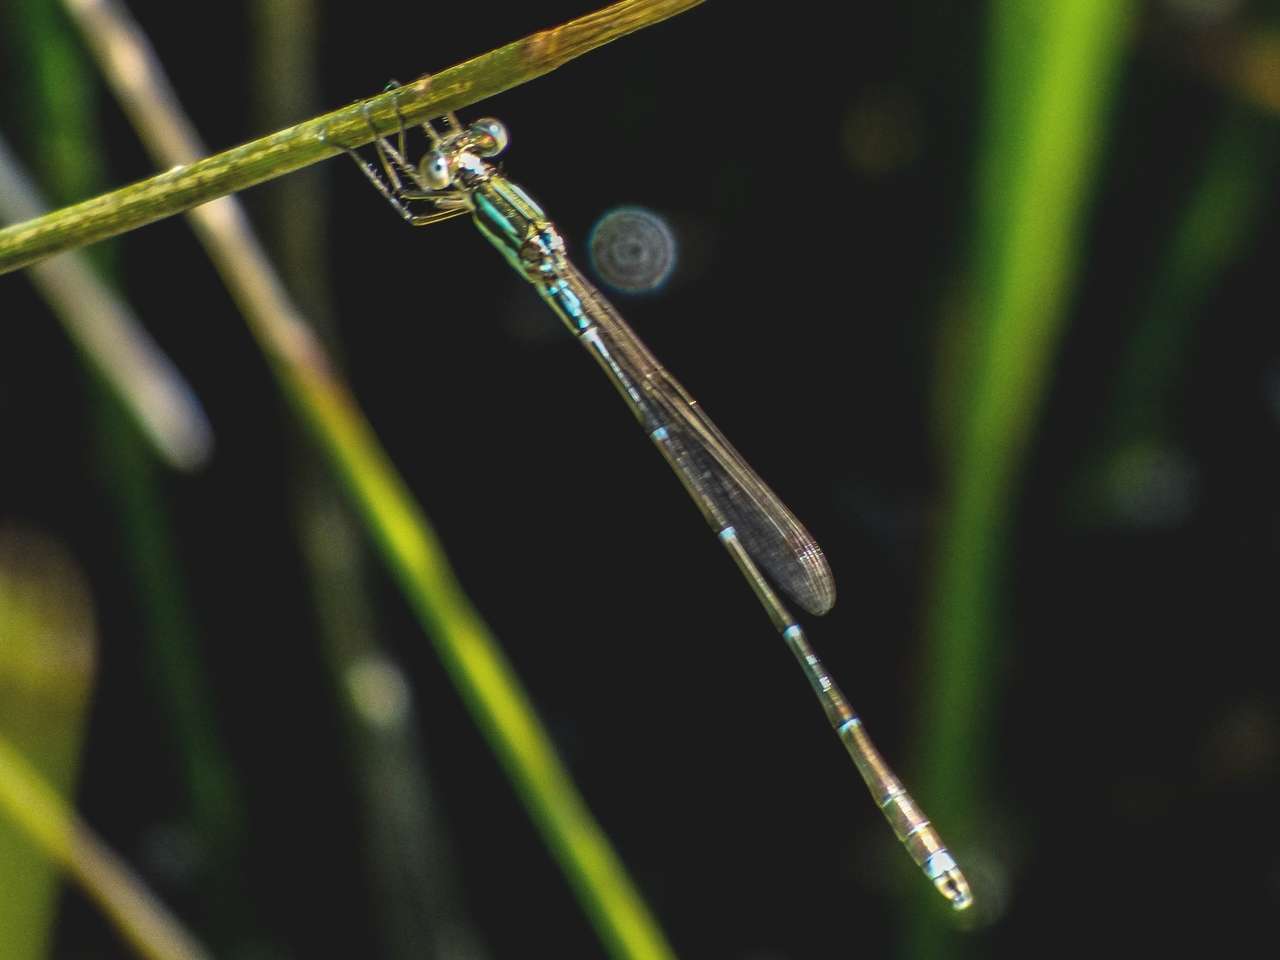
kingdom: Animalia
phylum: Arthropoda
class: Insecta
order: Odonata
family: Lestidae
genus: Austrolestes
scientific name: Austrolestes analis
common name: Slender ringtail
